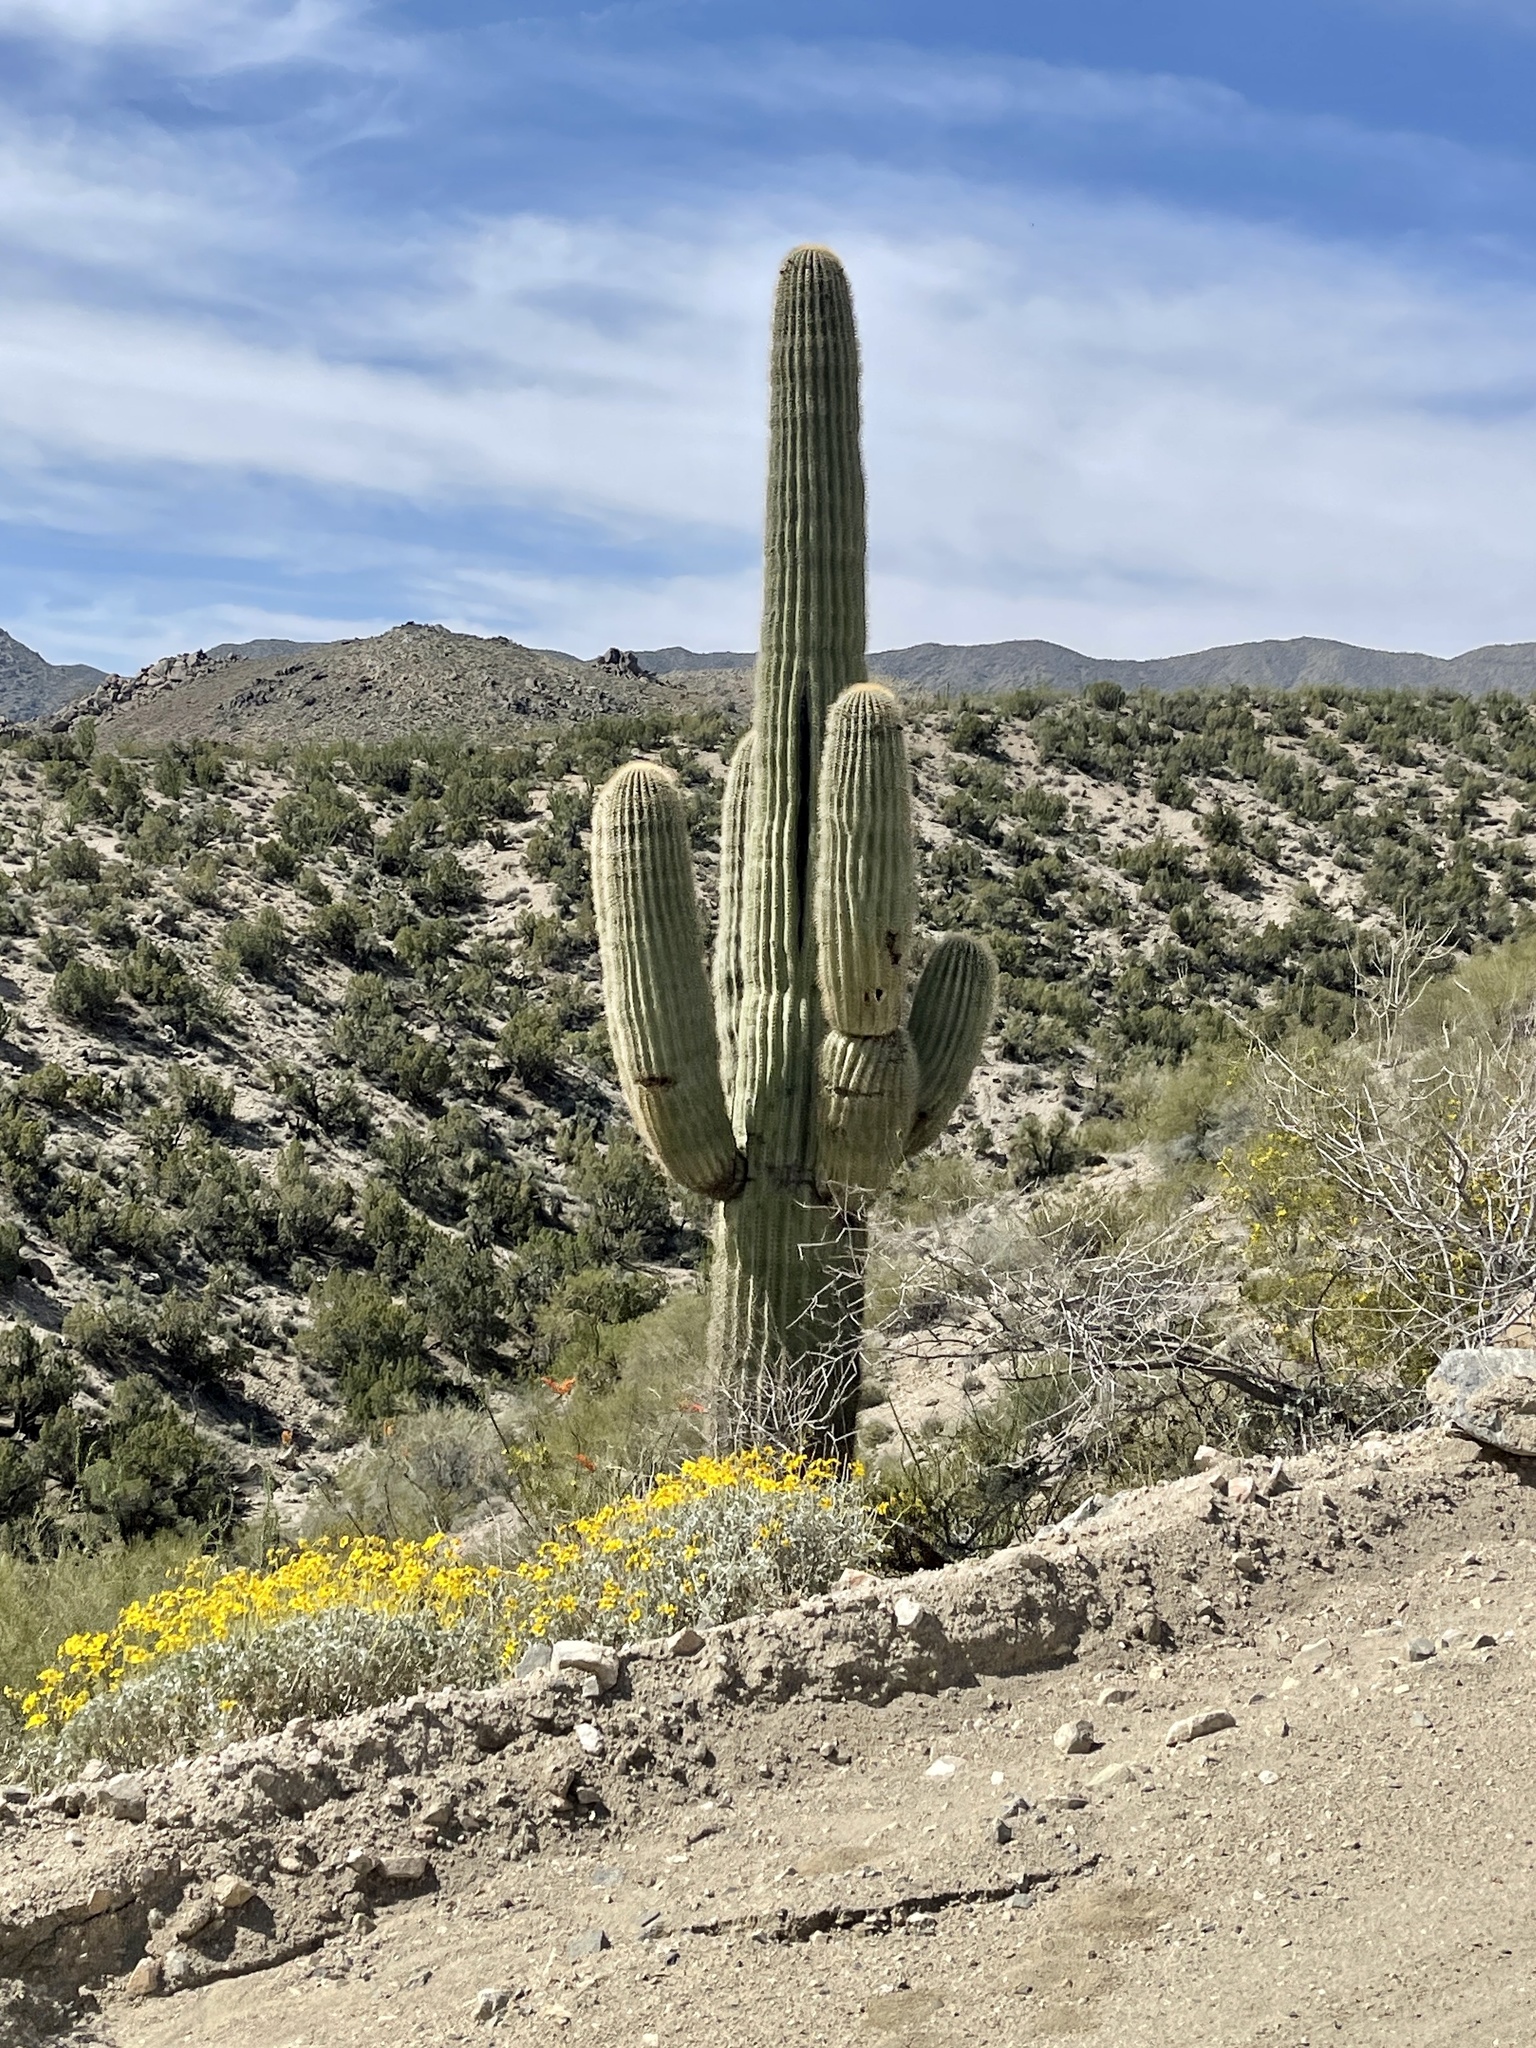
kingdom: Plantae
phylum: Tracheophyta
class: Magnoliopsida
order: Caryophyllales
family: Cactaceae
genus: Carnegiea
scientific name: Carnegiea gigantea
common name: Saguaro
